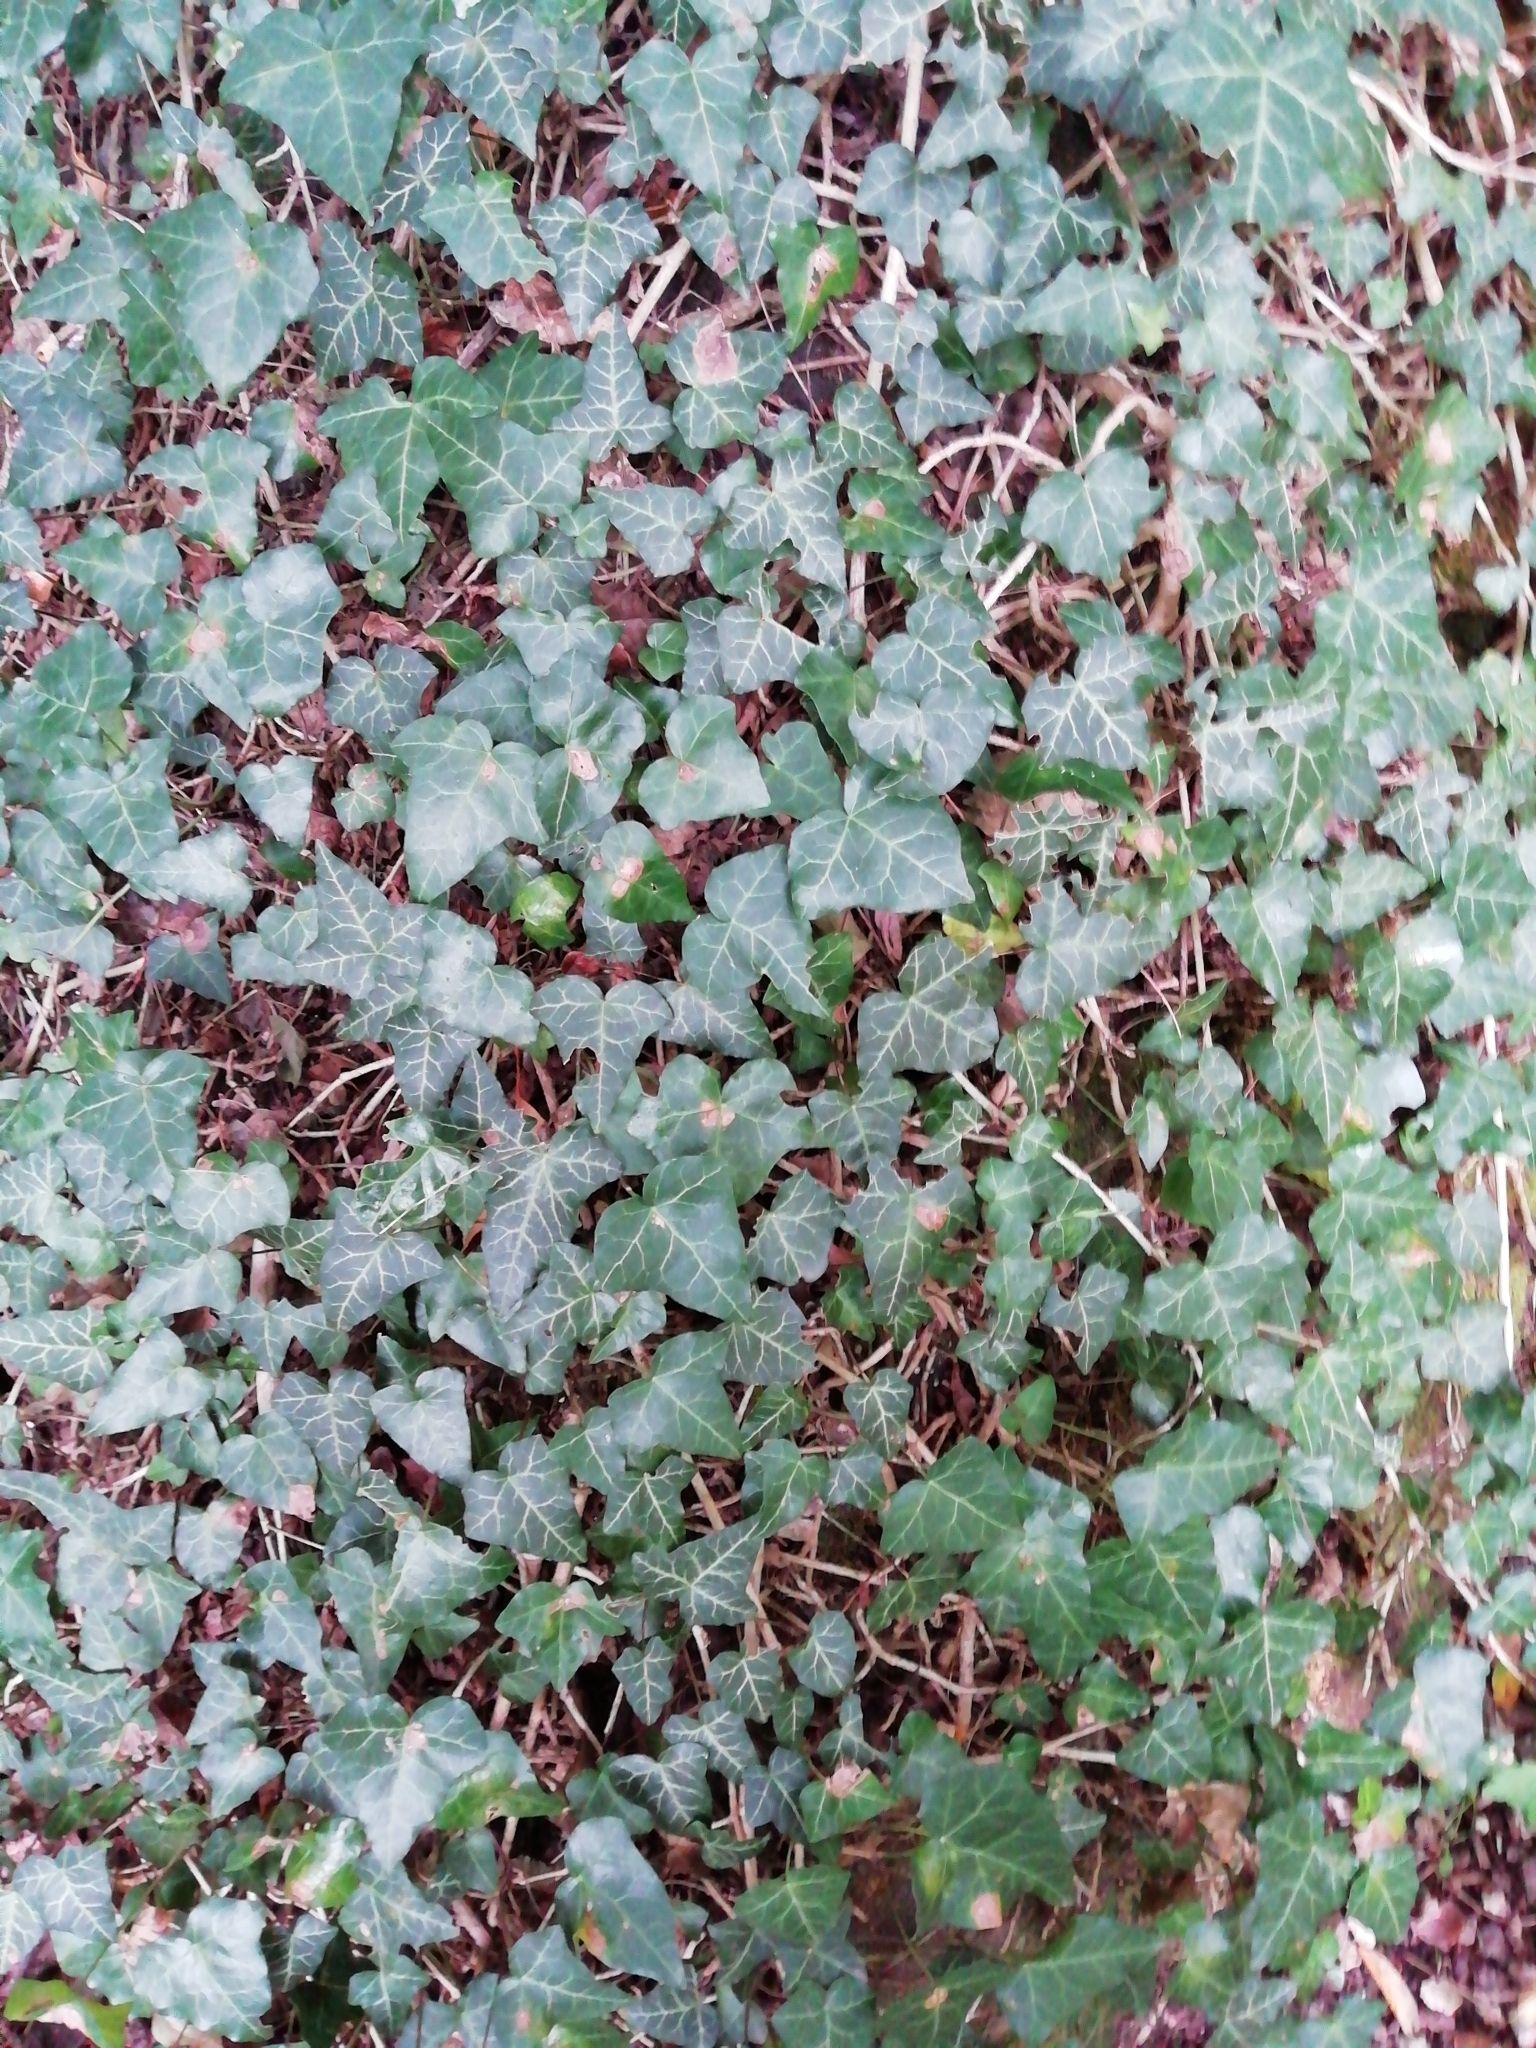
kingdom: Plantae
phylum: Tracheophyta
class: Magnoliopsida
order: Apiales
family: Araliaceae
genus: Hedera
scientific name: Hedera helix
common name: Ivy
